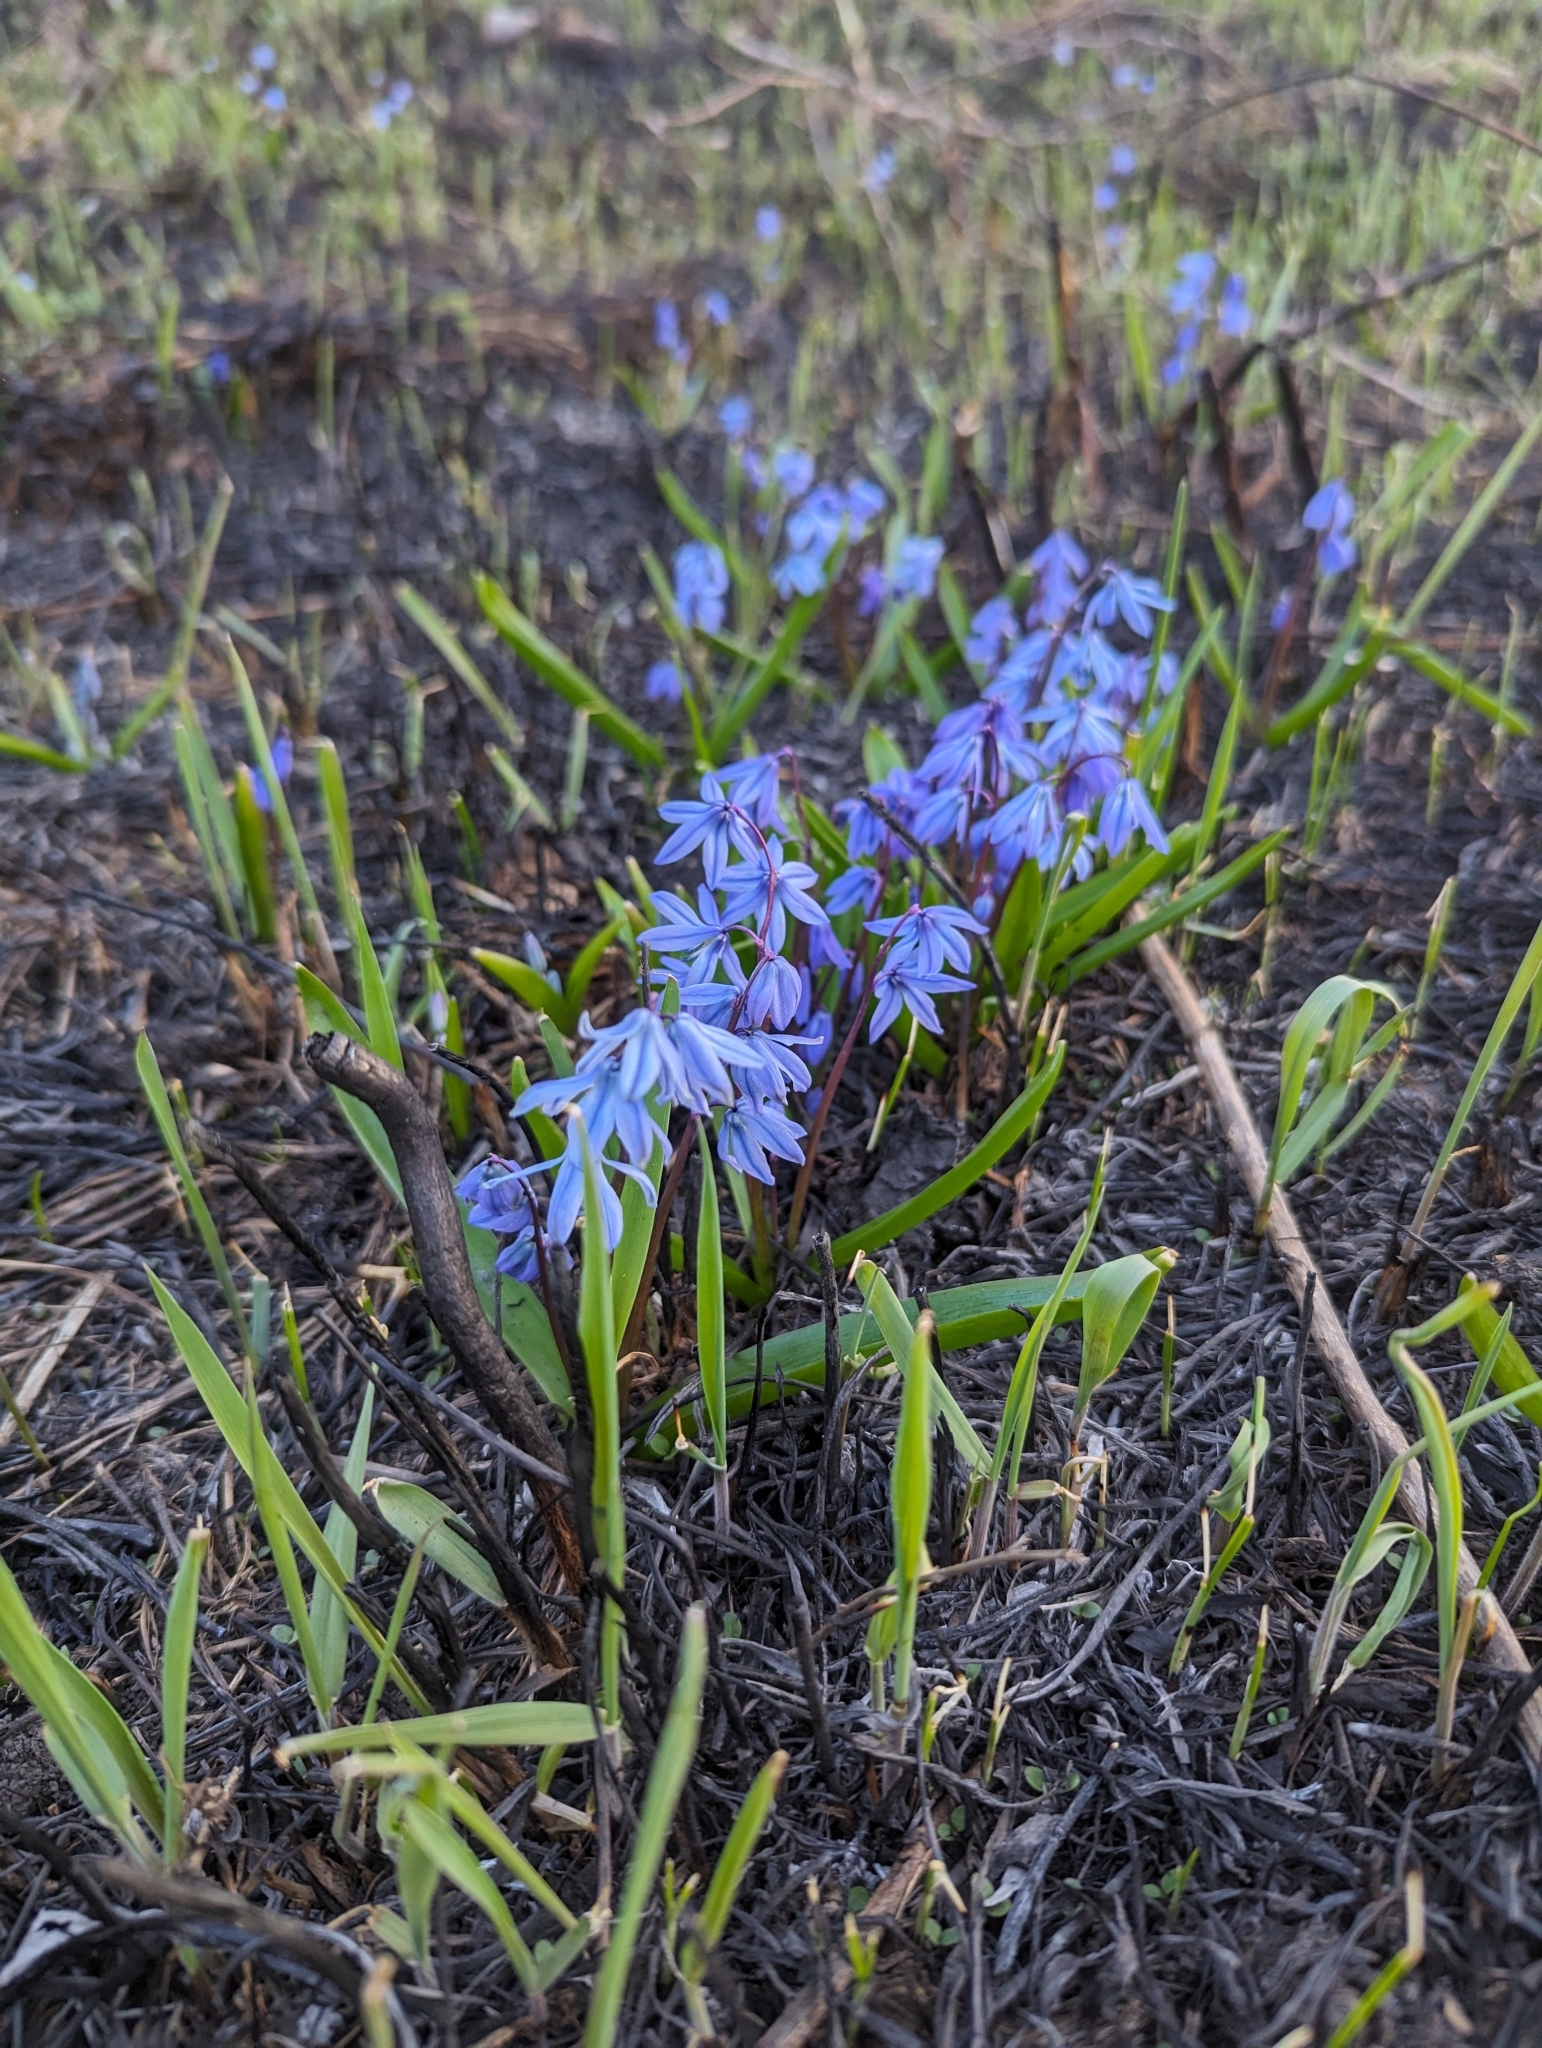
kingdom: Plantae
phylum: Tracheophyta
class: Liliopsida
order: Asparagales
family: Asparagaceae
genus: Scilla
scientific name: Scilla siberica
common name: Siberian squill
